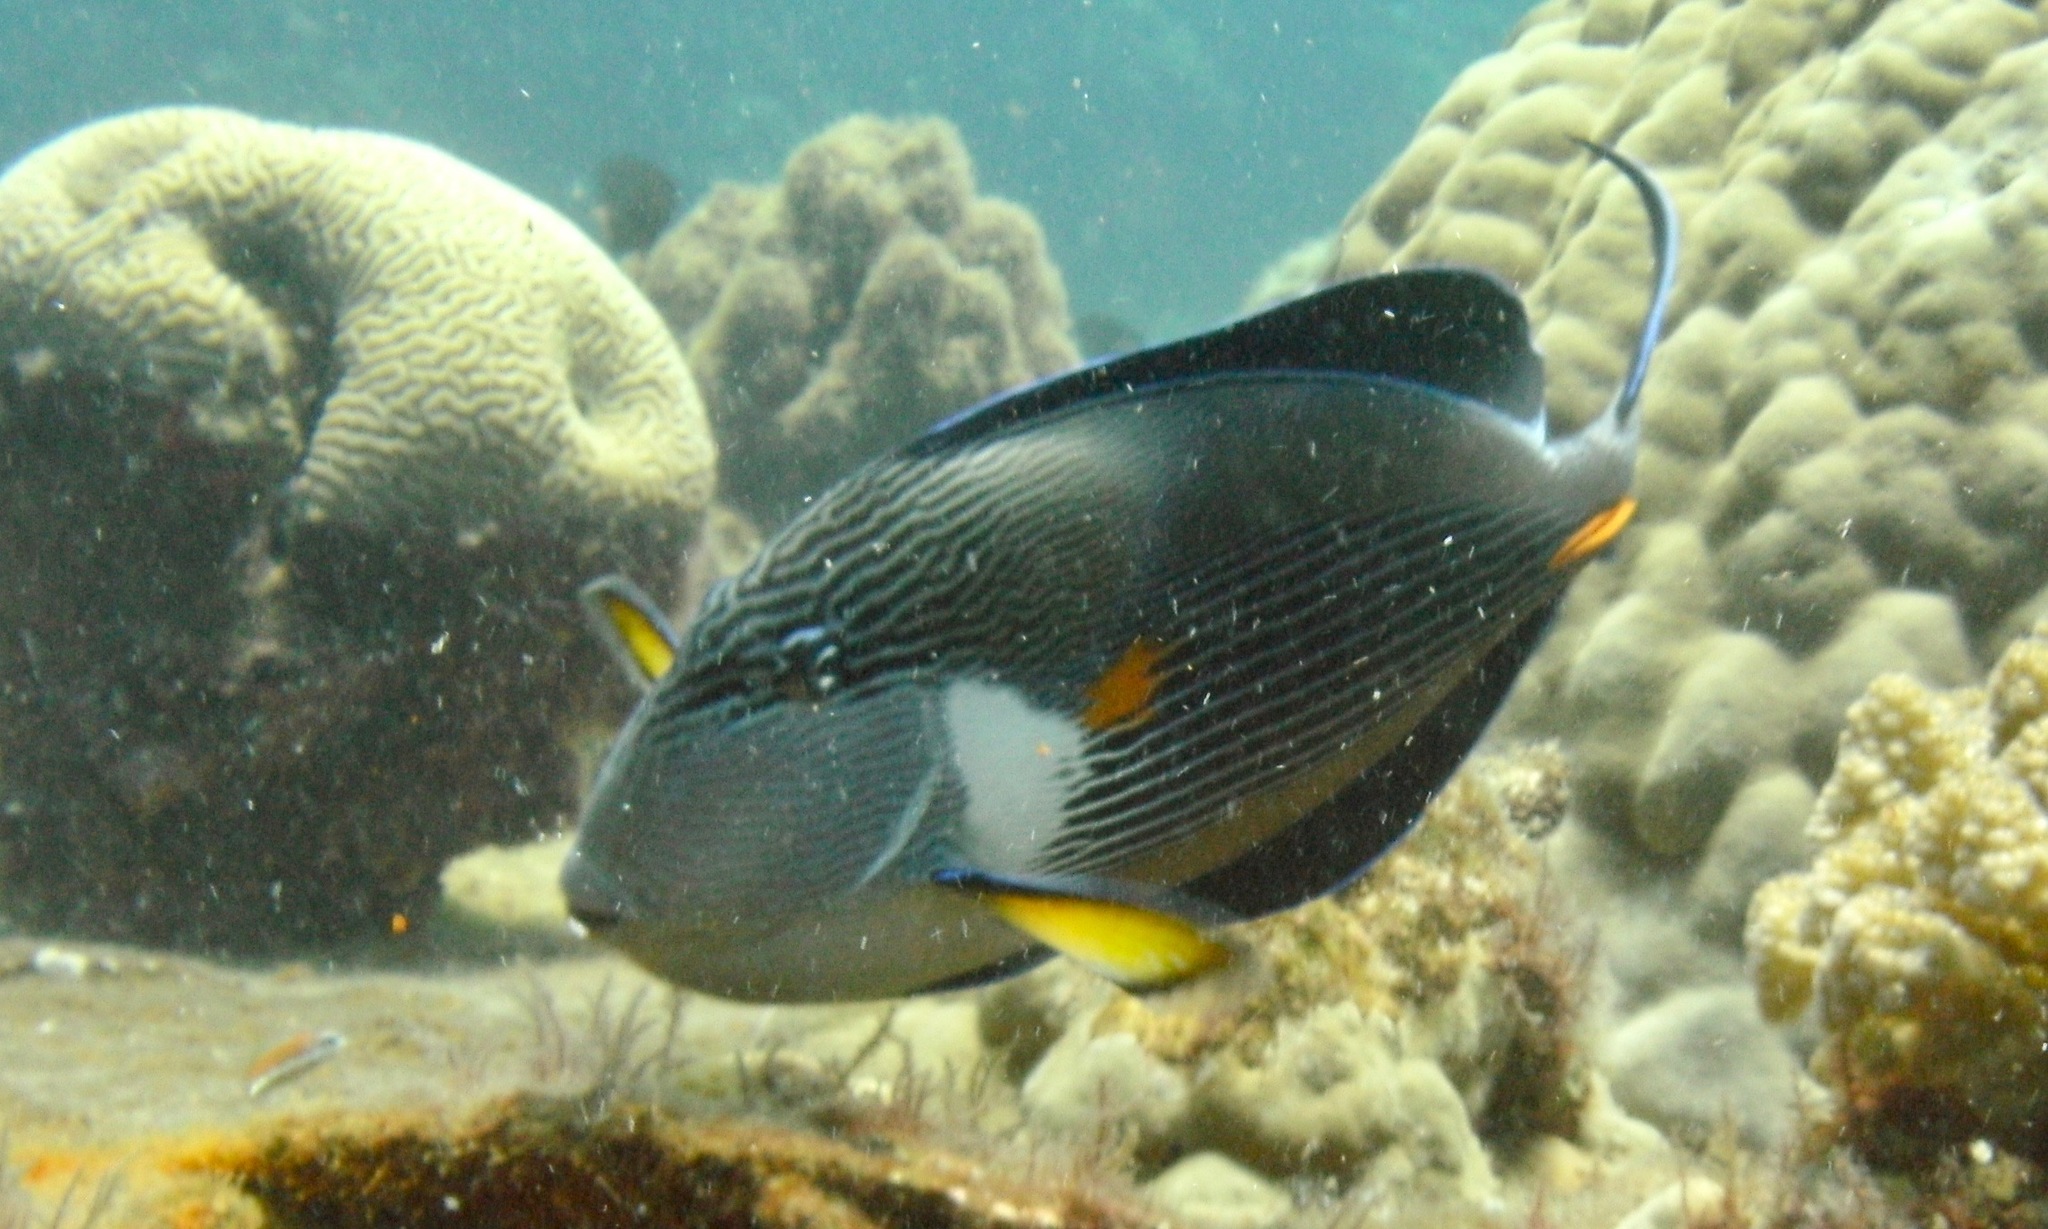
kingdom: Animalia
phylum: Chordata
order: Perciformes
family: Acanthuridae
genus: Acanthurus
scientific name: Acanthurus sohal
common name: Red sea surgeonfish
